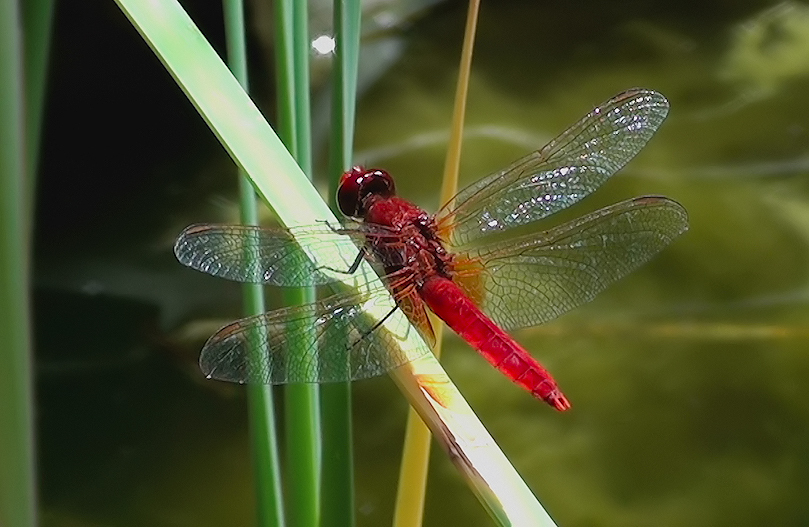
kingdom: Animalia
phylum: Arthropoda
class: Insecta
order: Odonata
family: Libellulidae
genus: Crocothemis
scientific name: Crocothemis erythraea
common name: Scarlet dragonfly
